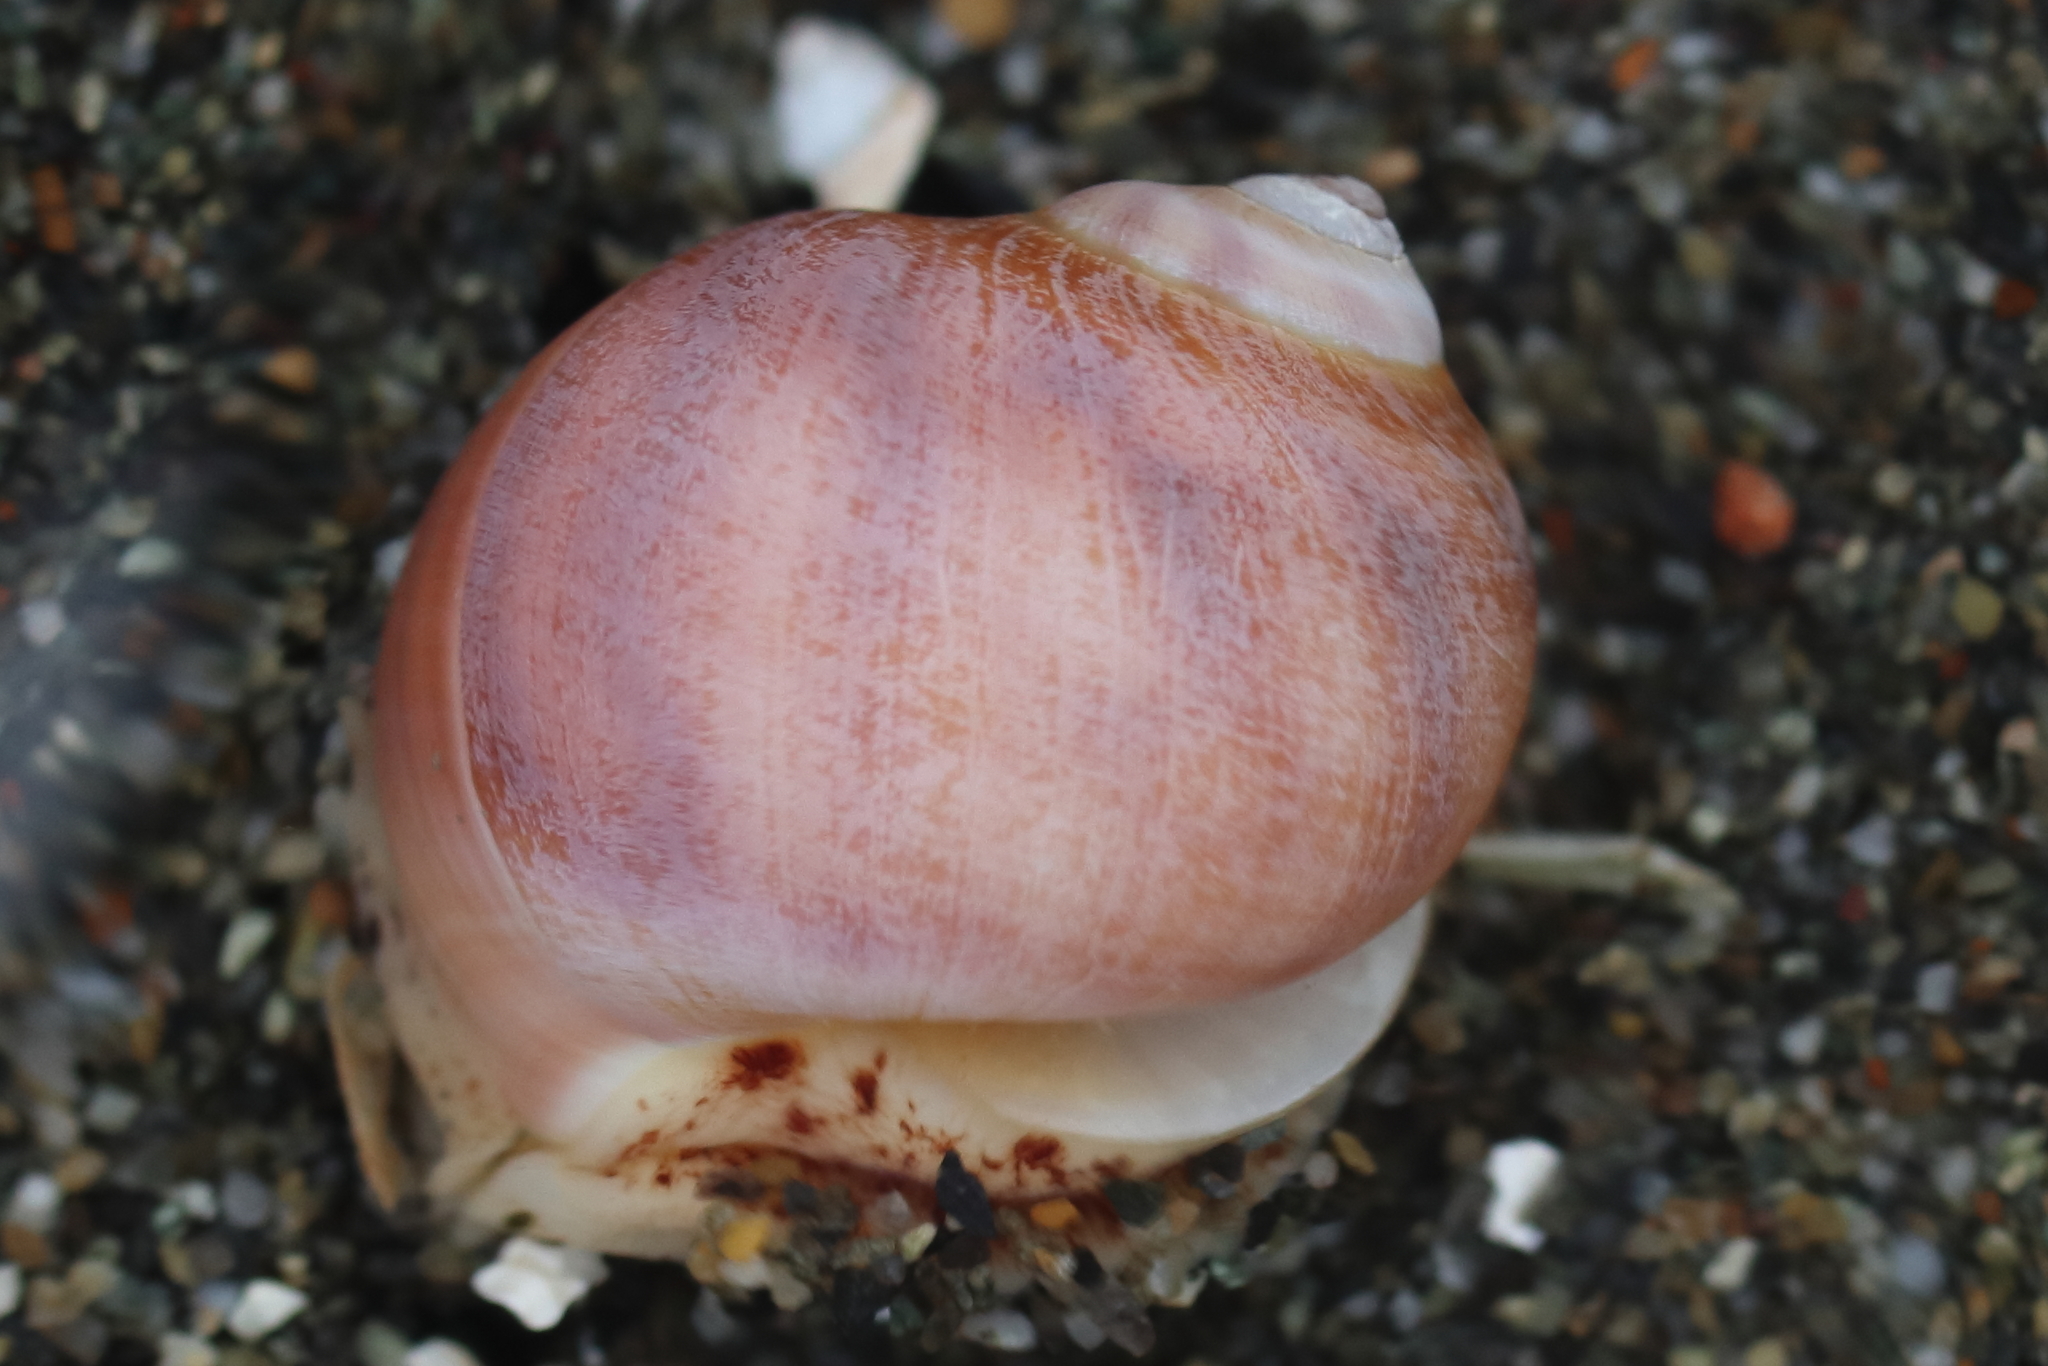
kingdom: Animalia
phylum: Mollusca
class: Gastropoda
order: Littorinimorpha
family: Naticidae
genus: Cryptonatica
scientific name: Cryptonatica aleutica
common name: Aleutian moon snail
